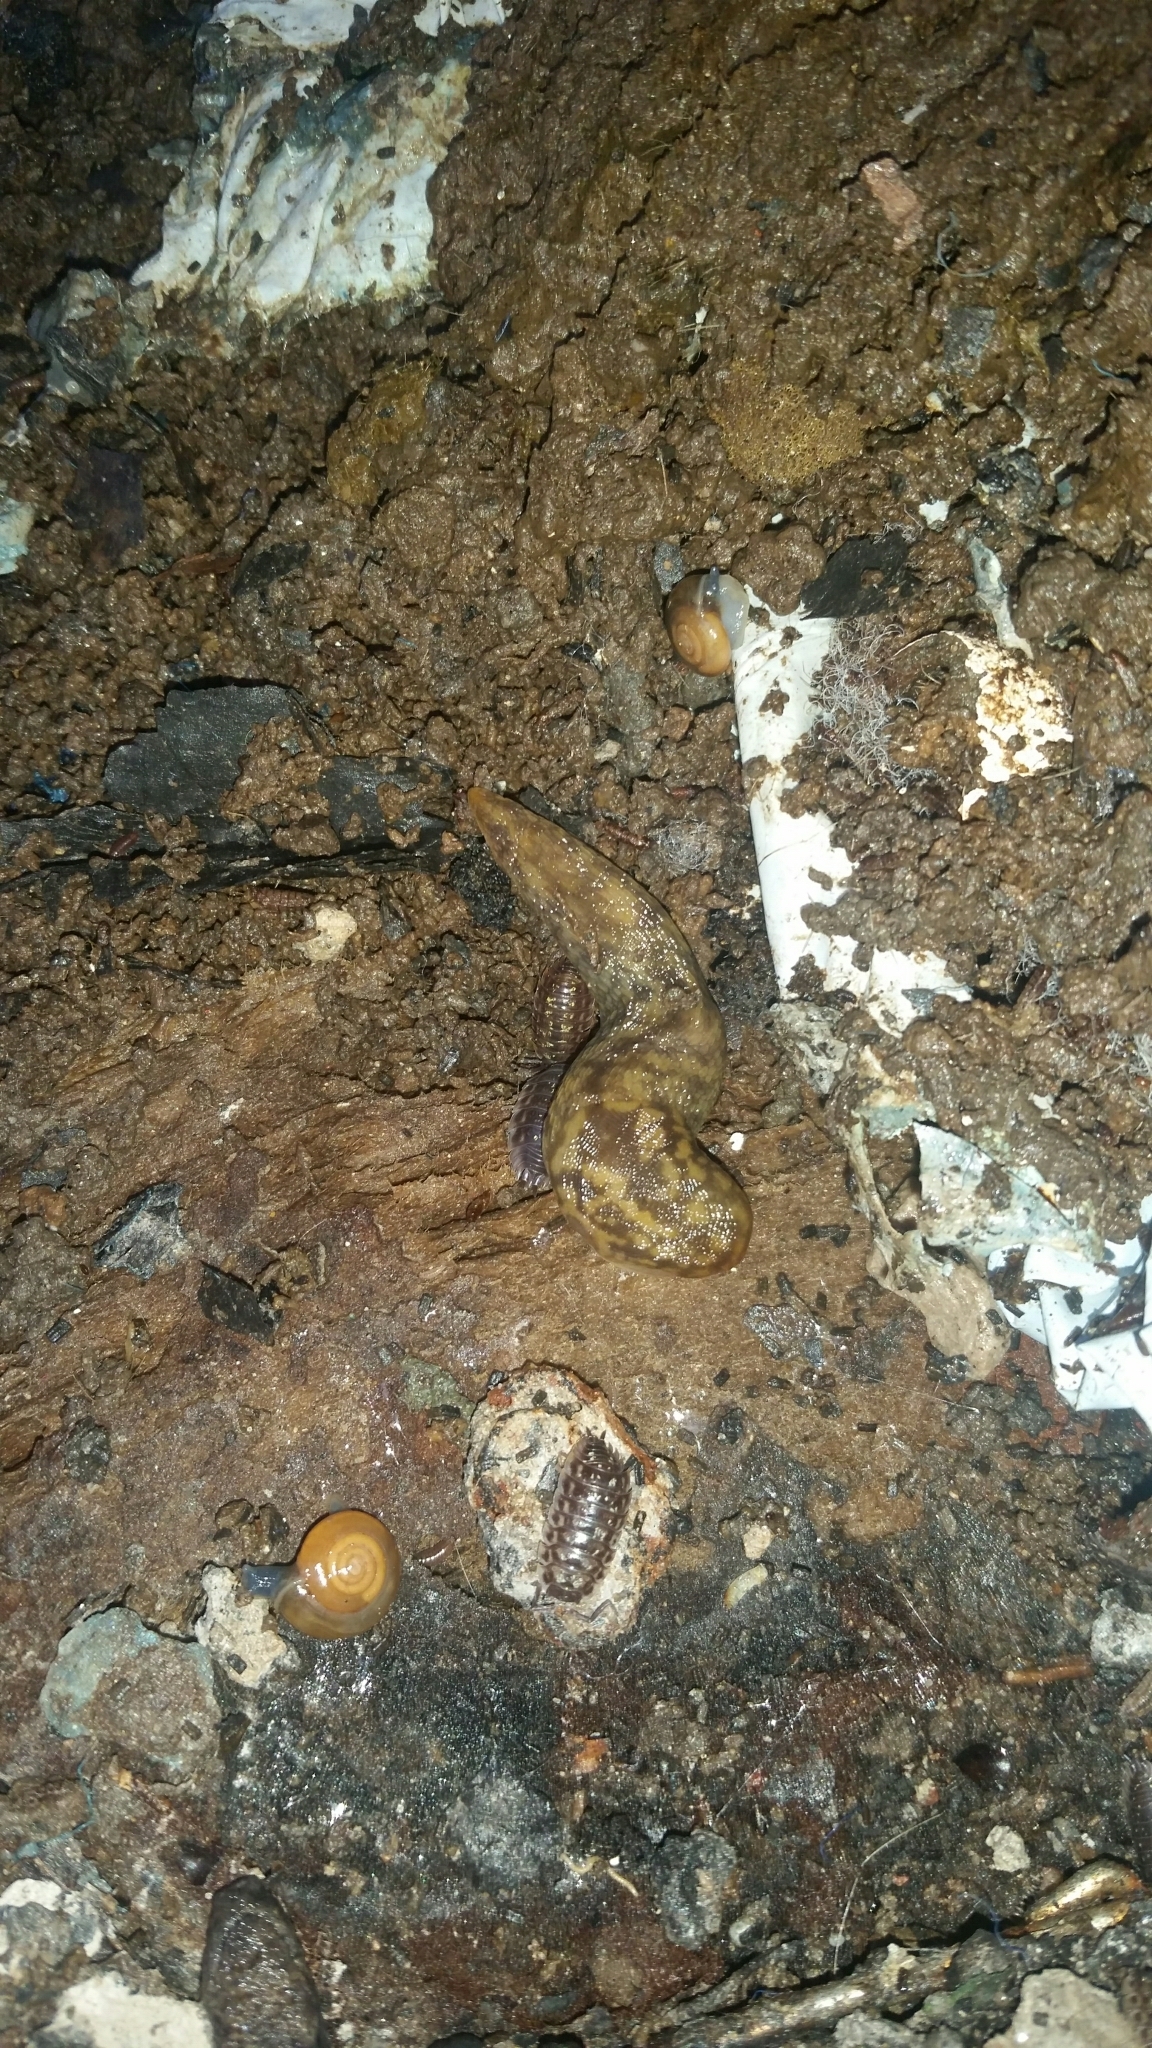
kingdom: Animalia
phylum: Mollusca
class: Gastropoda
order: Stylommatophora
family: Limacidae
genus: Limacus
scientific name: Limacus maculatus
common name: Irish yellow slug
